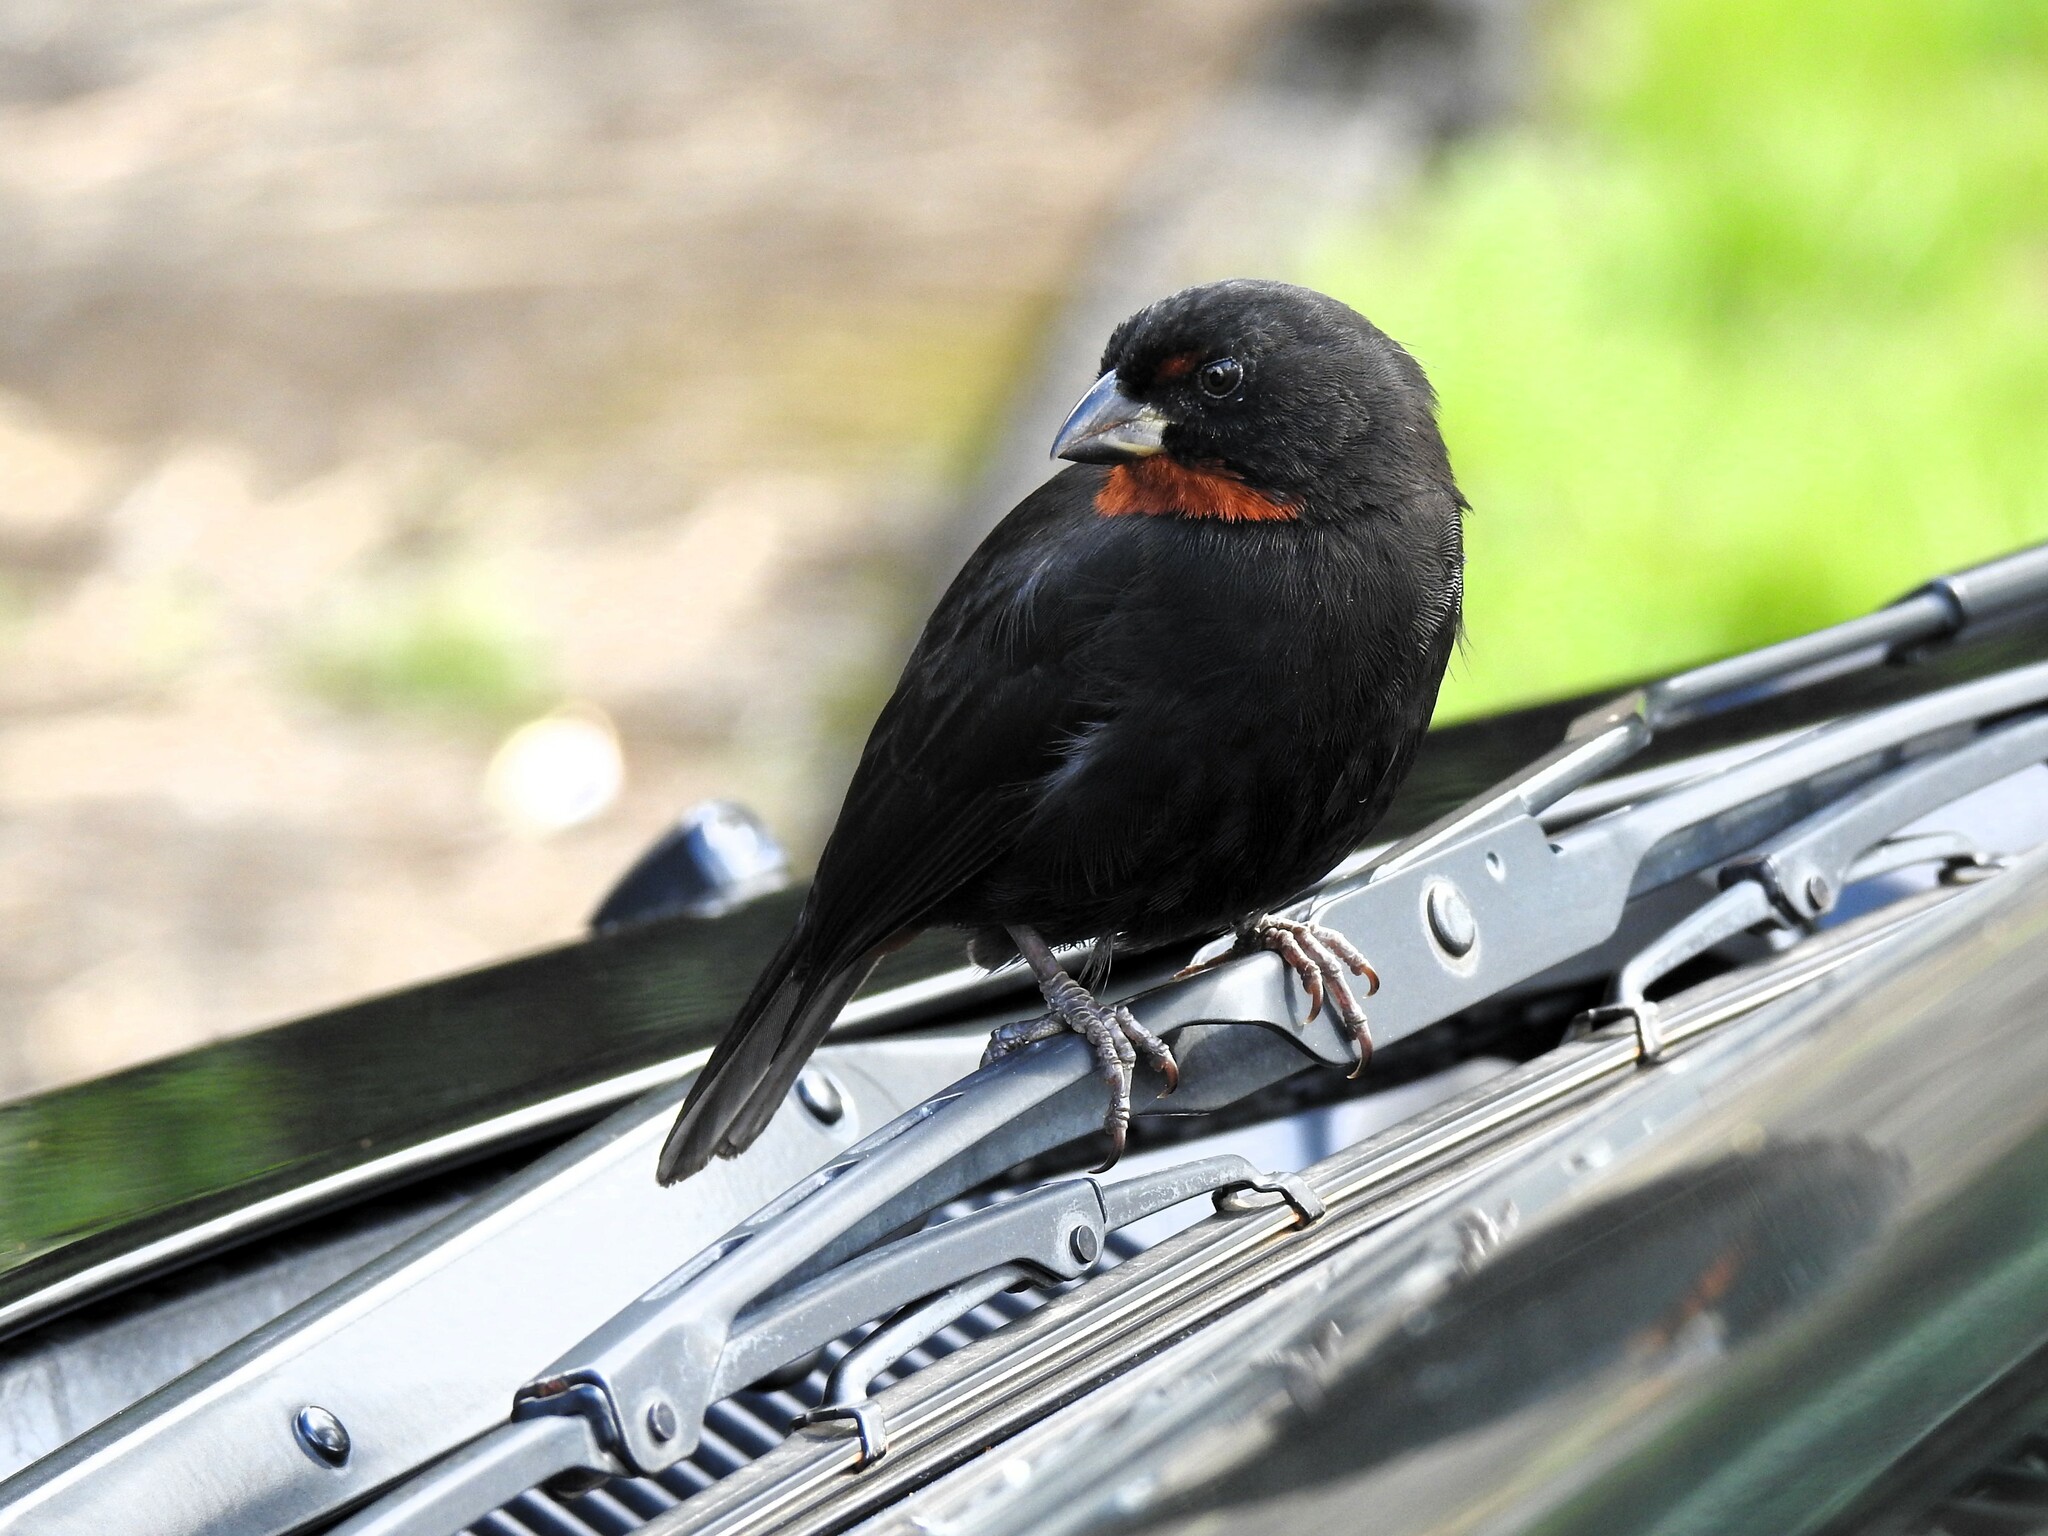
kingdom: Animalia
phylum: Chordata
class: Aves
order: Passeriformes
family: Thraupidae
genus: Loxigilla
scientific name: Loxigilla noctis
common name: Lesser antillean bullfinch
